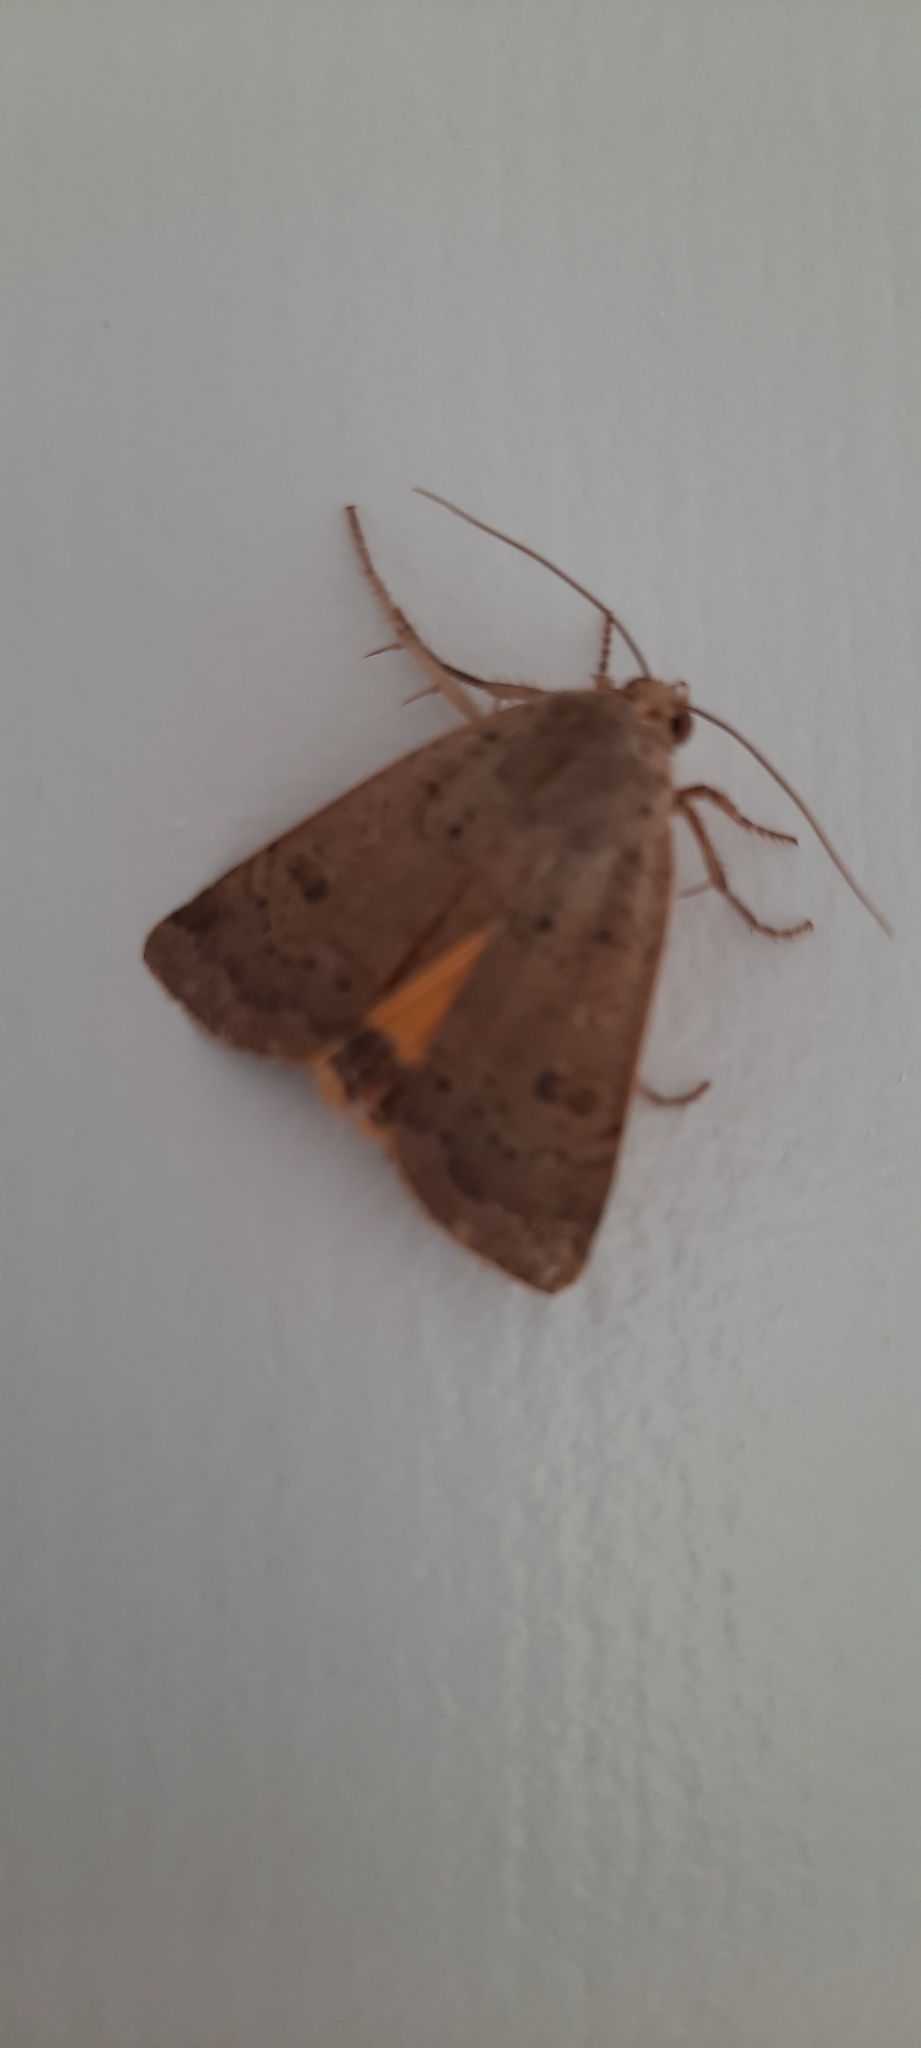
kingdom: Animalia
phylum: Arthropoda
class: Insecta
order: Lepidoptera
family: Noctuidae
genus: Noctua
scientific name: Noctua comes
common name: Lesser yellow underwing
